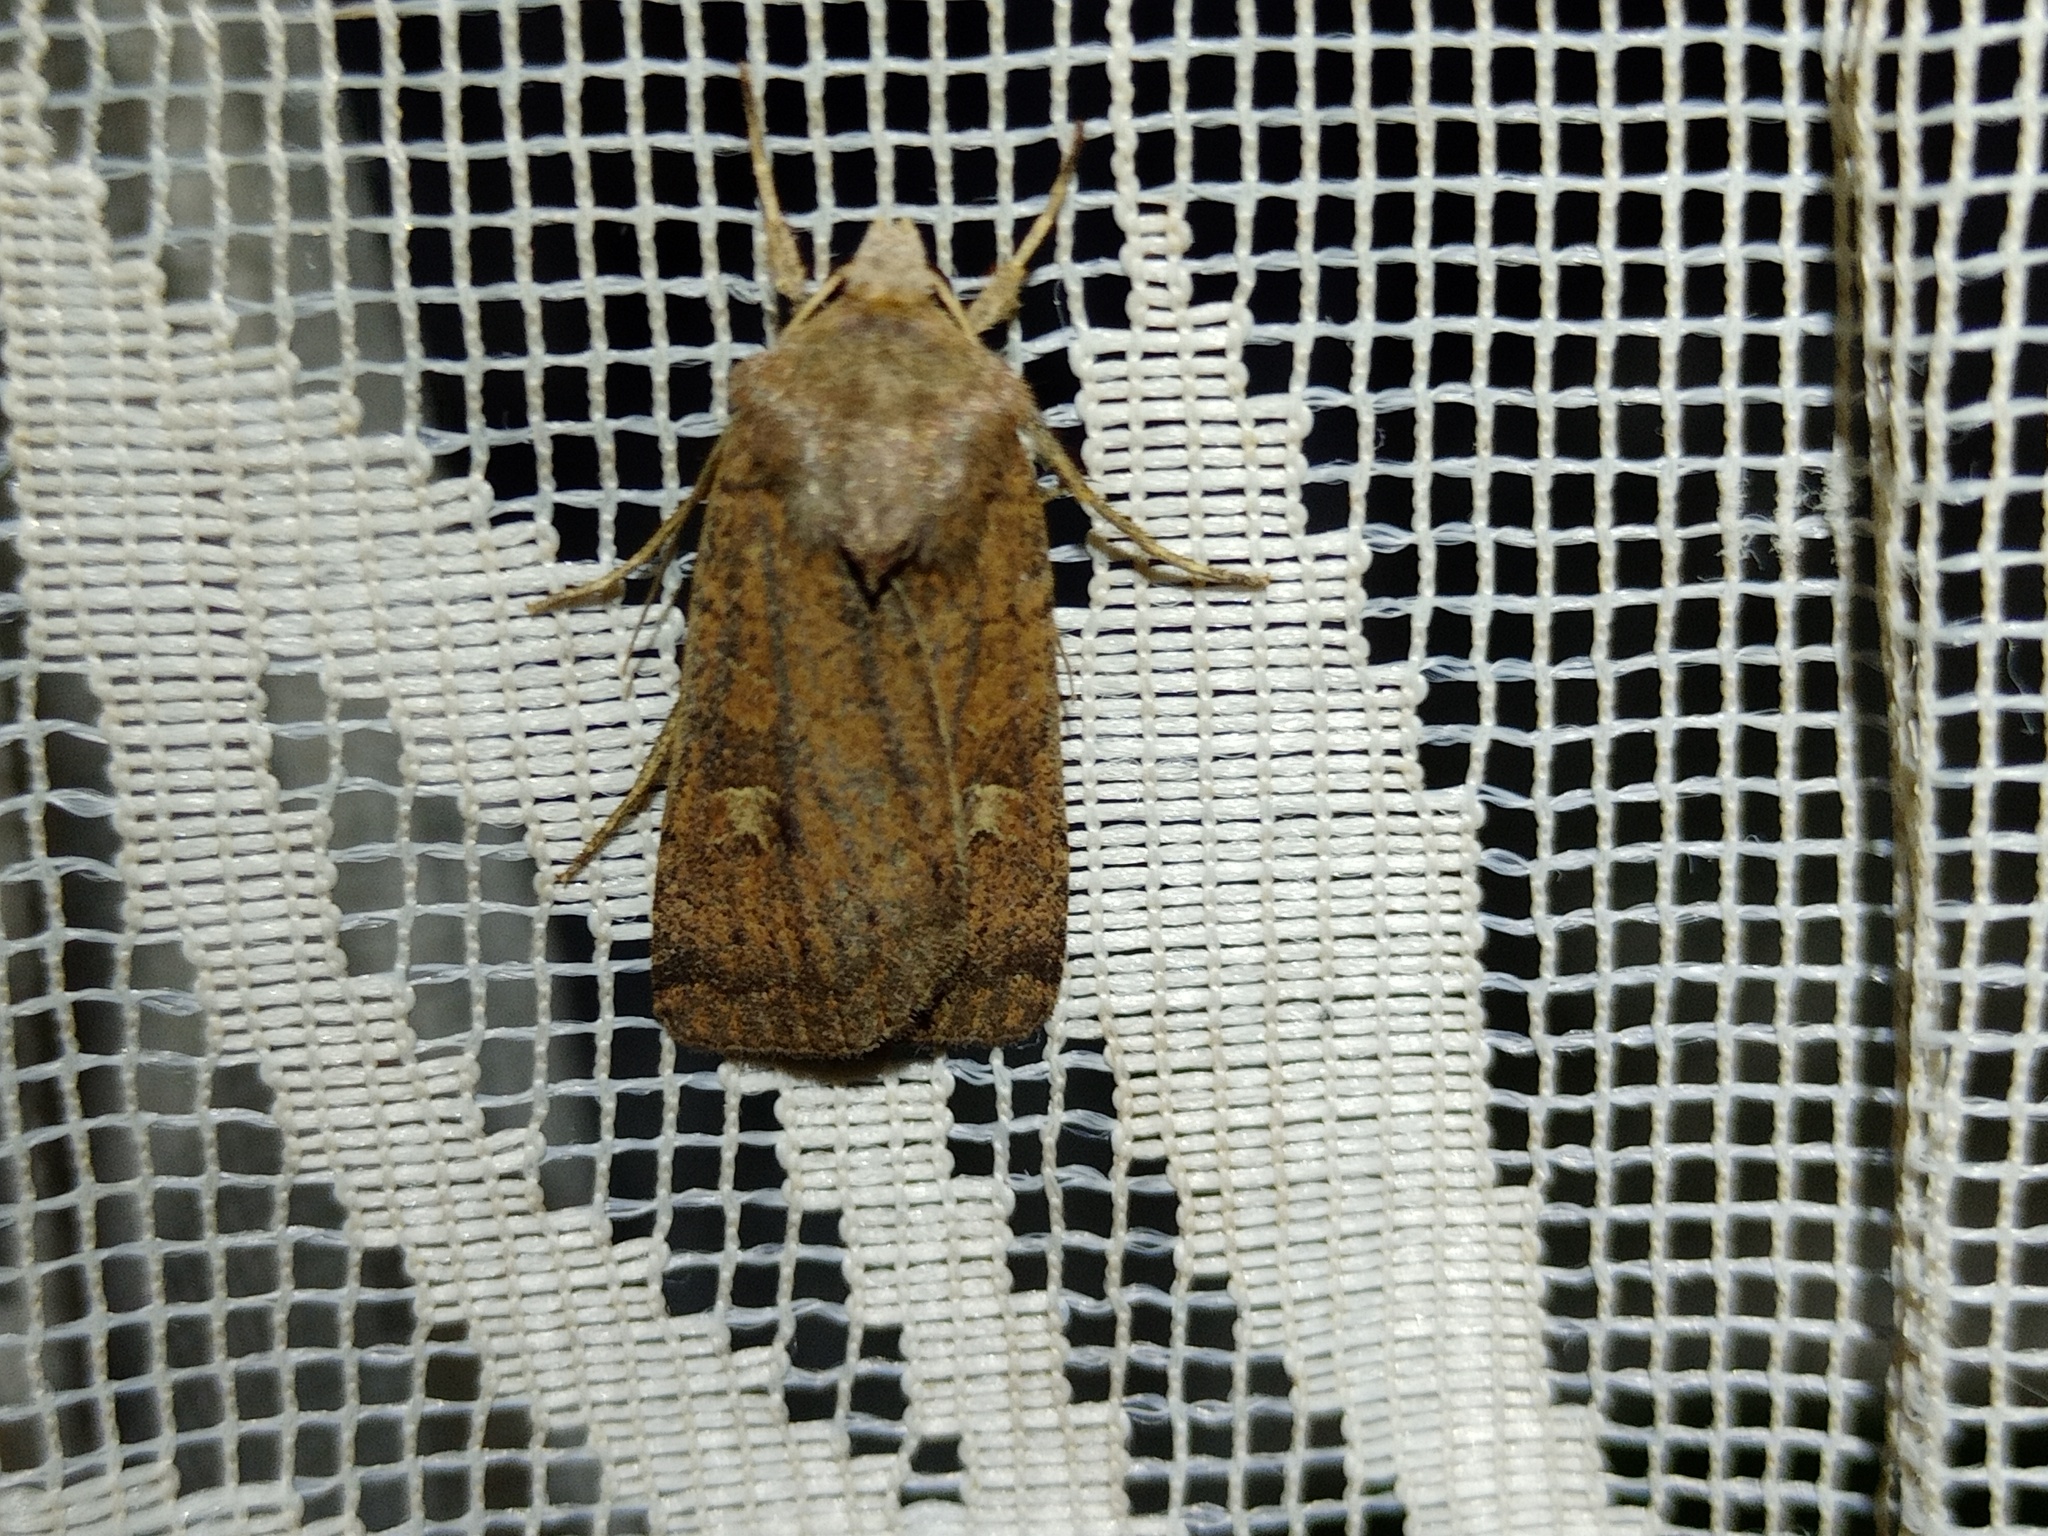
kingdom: Animalia
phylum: Arthropoda
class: Insecta
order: Lepidoptera
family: Noctuidae
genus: Xestia
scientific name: Xestia xanthographa
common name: Square-spot rustic
